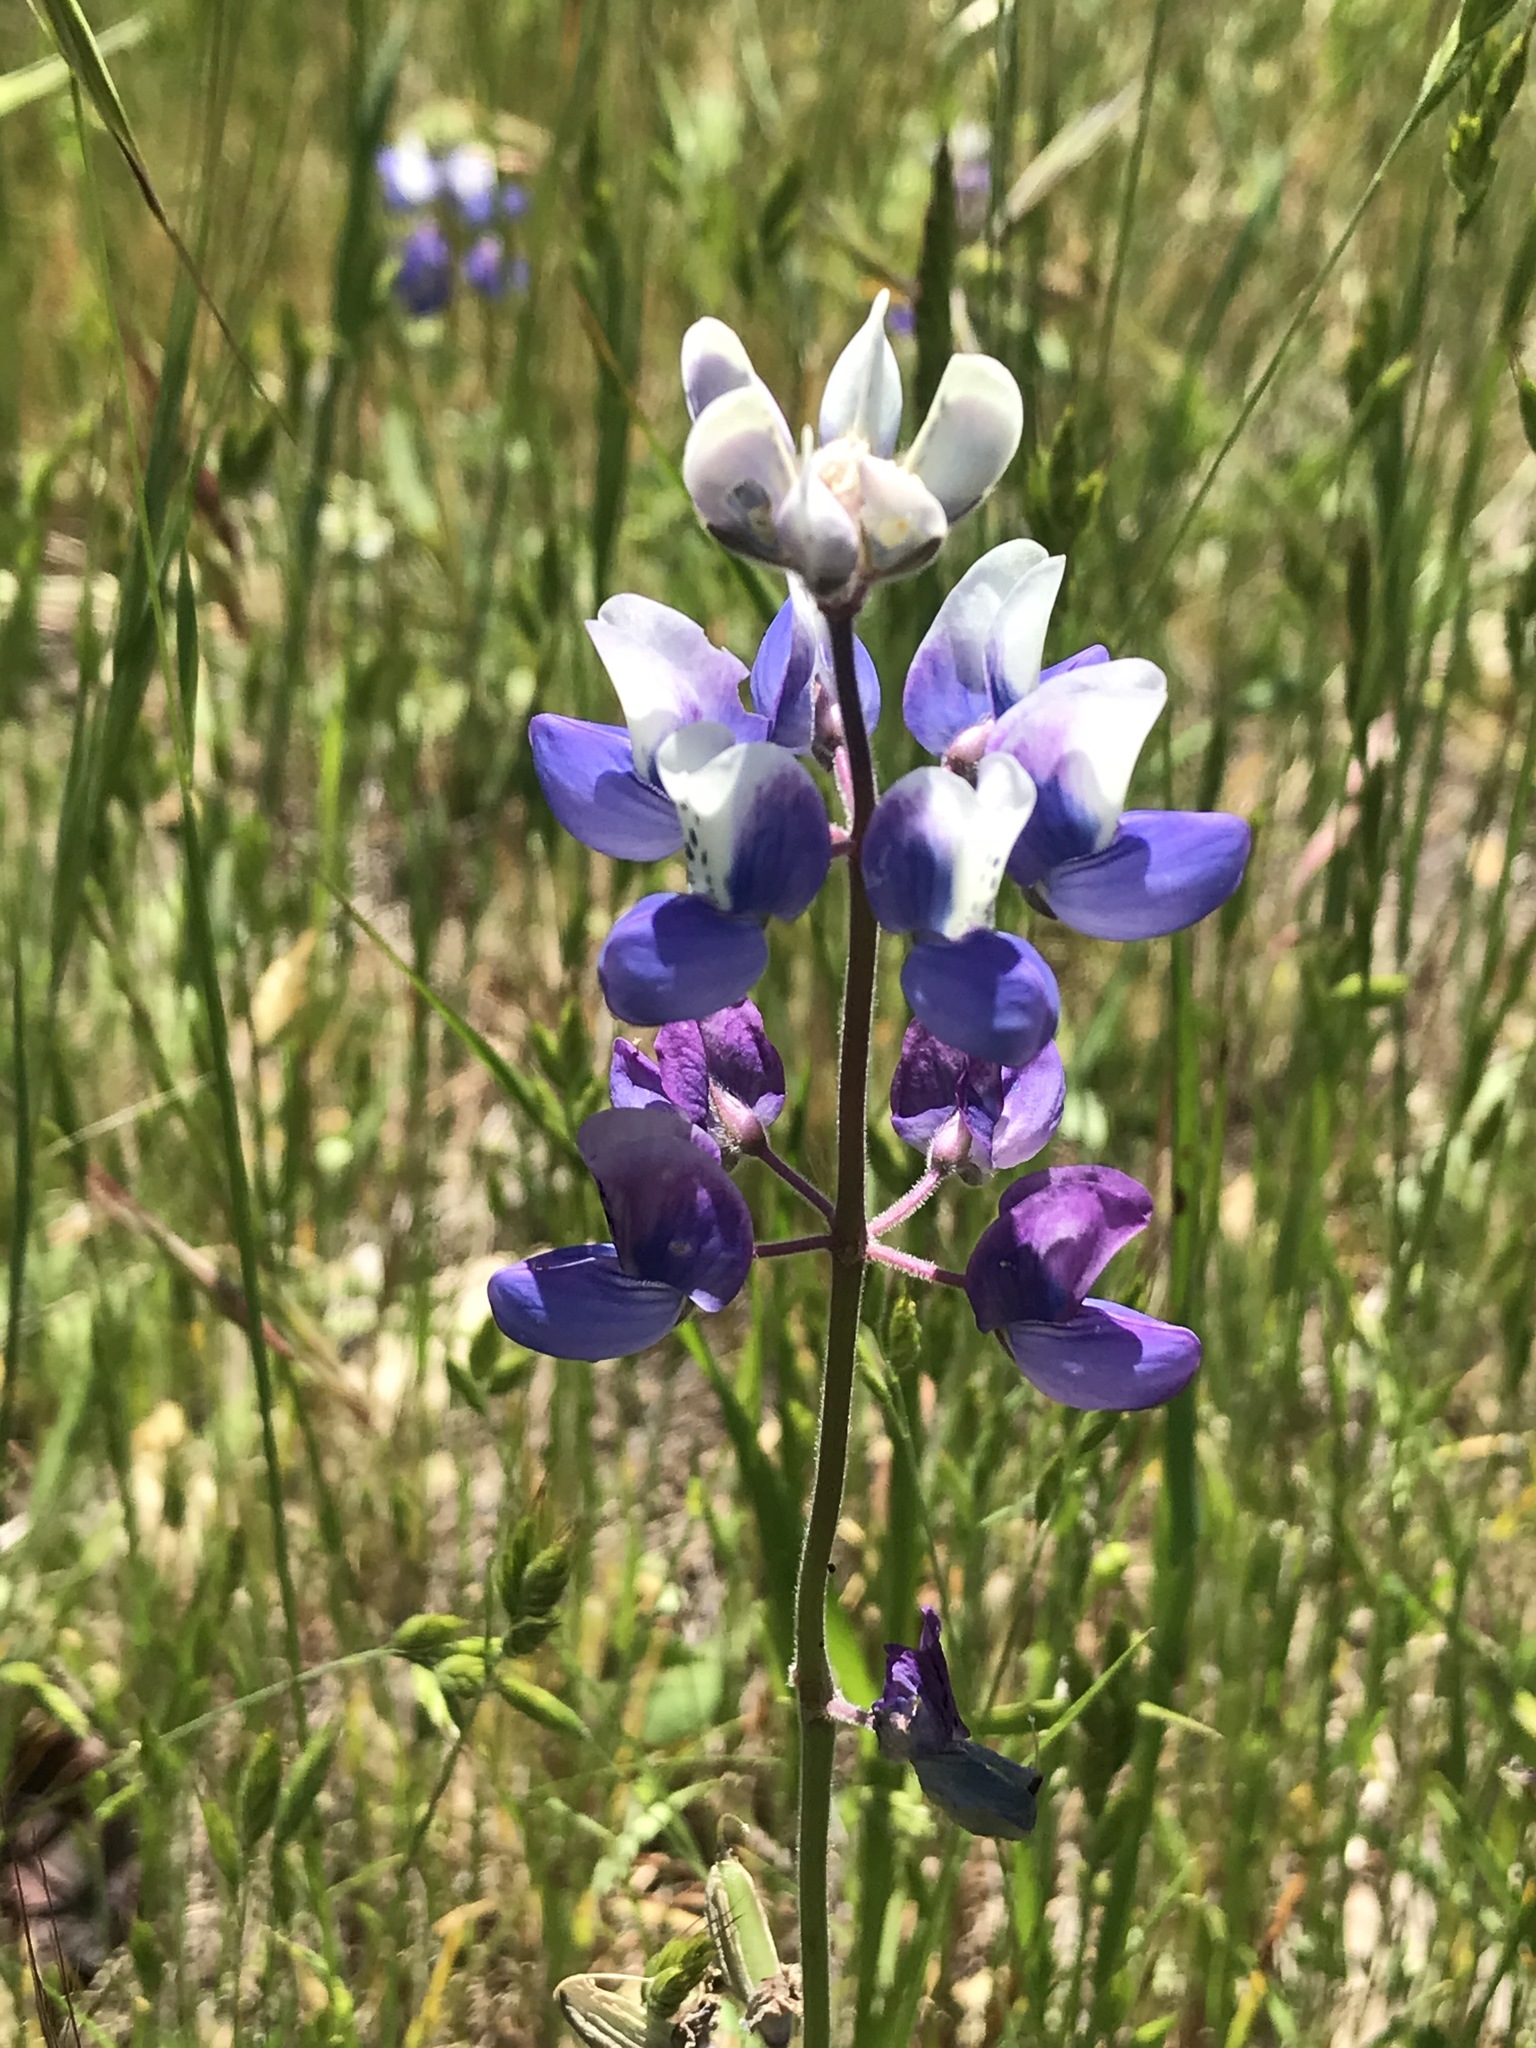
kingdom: Plantae
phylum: Tracheophyta
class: Magnoliopsida
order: Fabales
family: Fabaceae
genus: Lupinus
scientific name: Lupinus nanus
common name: Orean blue lupin
